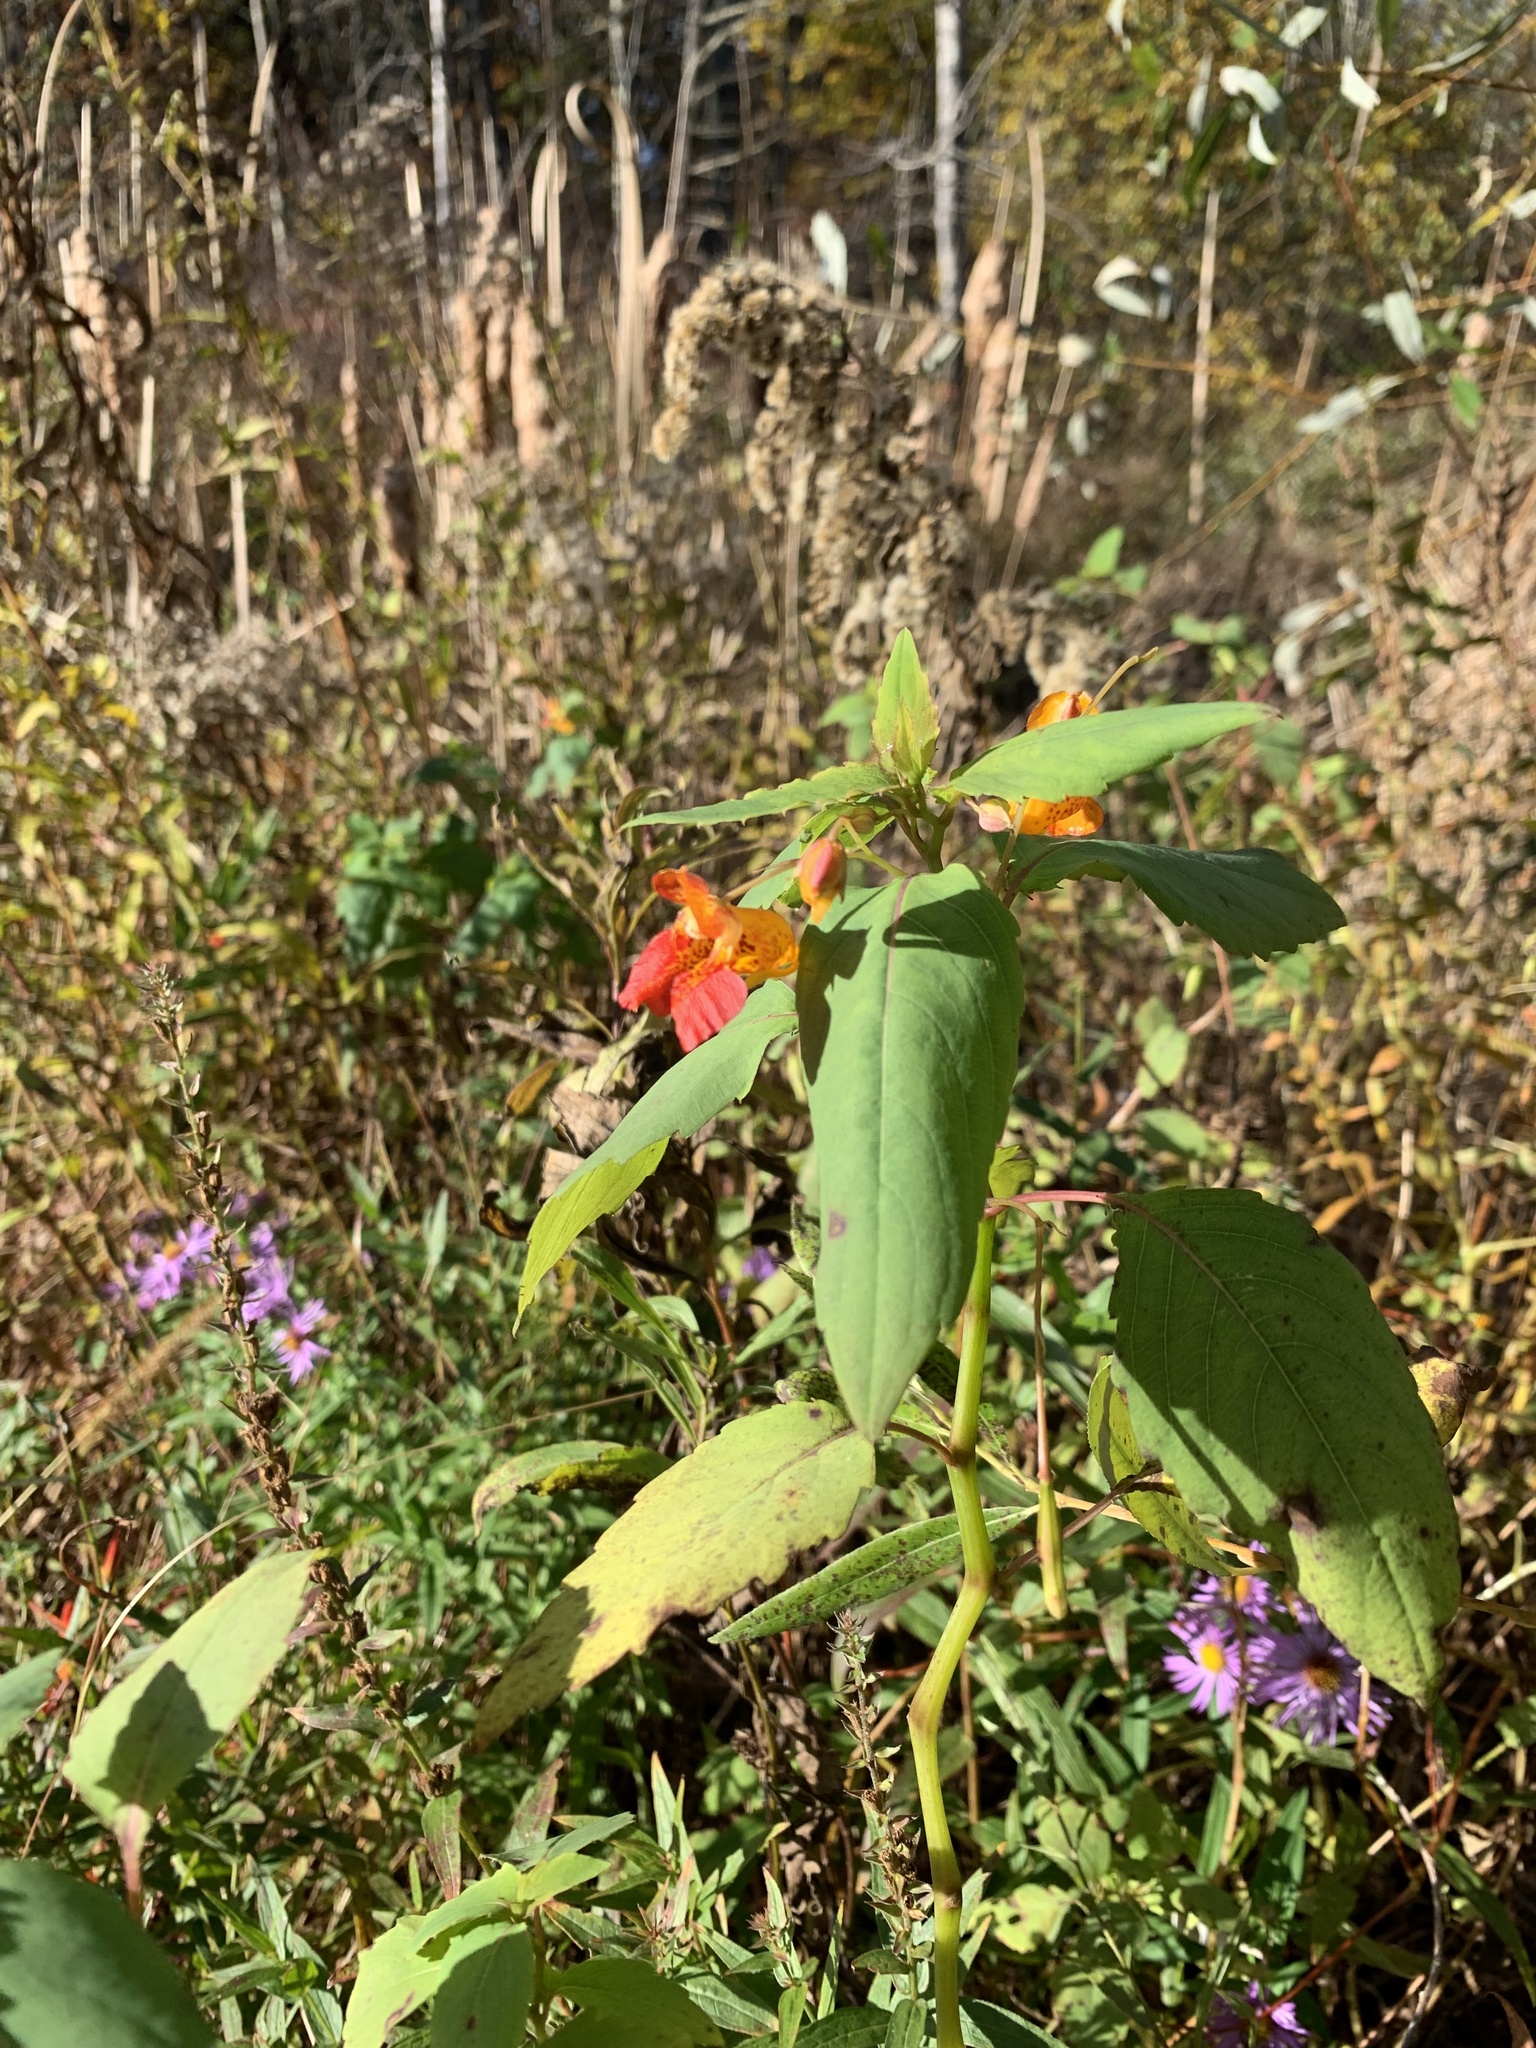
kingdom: Plantae
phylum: Tracheophyta
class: Magnoliopsida
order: Ericales
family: Balsaminaceae
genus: Impatiens
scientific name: Impatiens capensis
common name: Orange balsam
